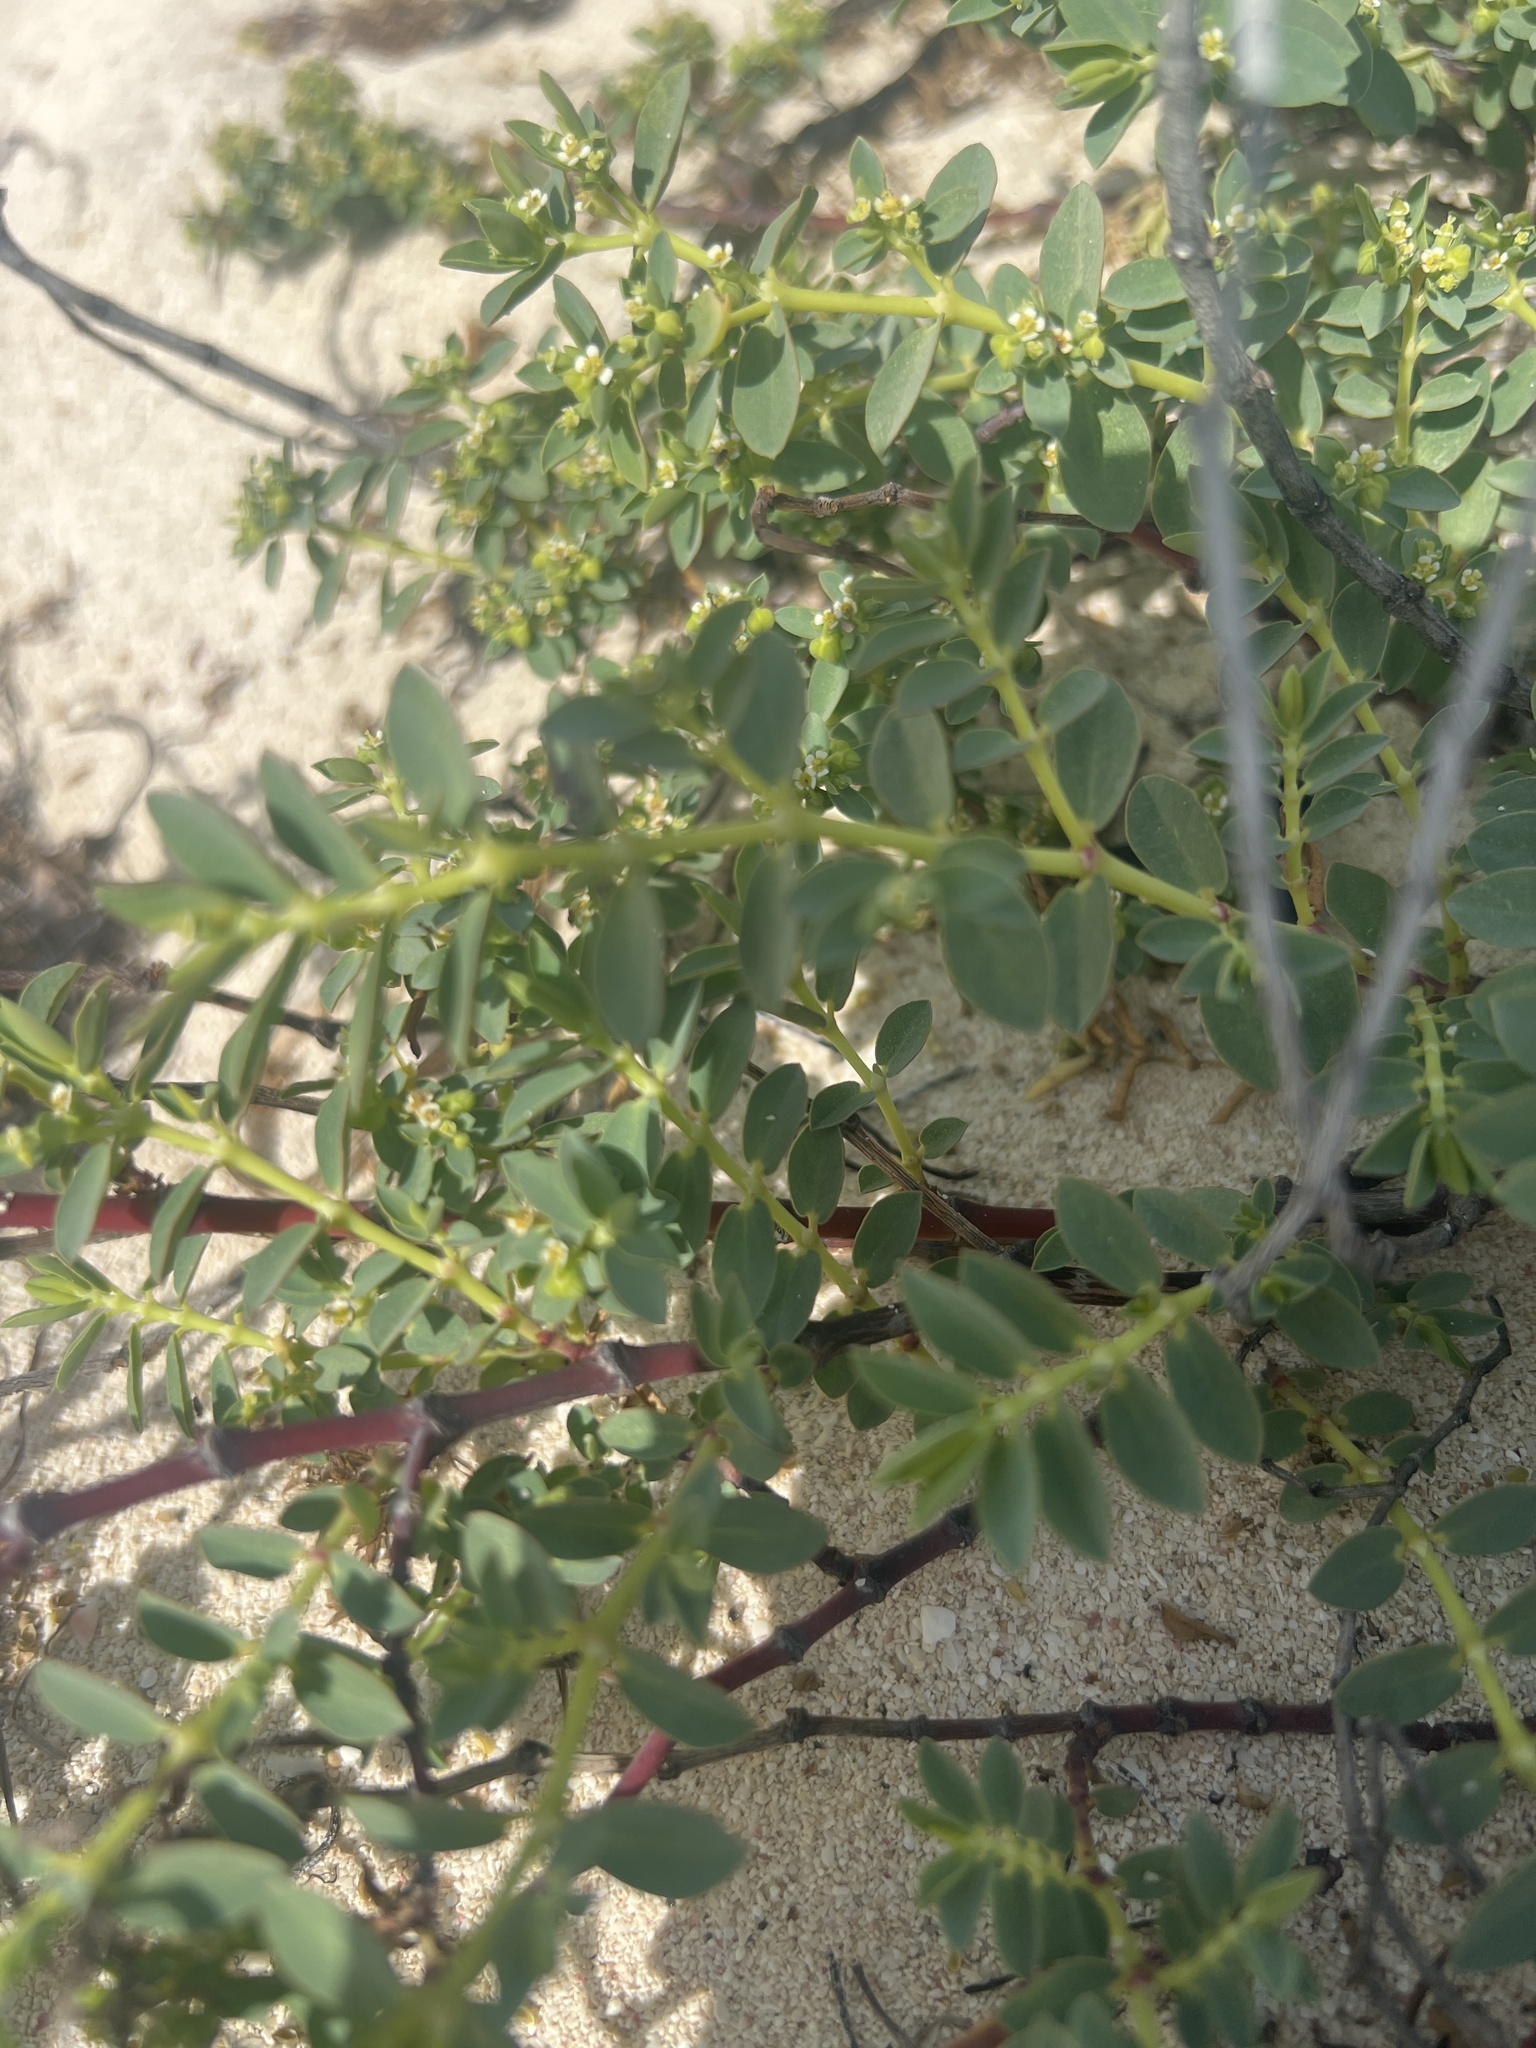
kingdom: Plantae
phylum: Tracheophyta
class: Magnoliopsida
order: Malpighiales
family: Euphorbiaceae
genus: Euphorbia
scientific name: Euphorbia mesembryanthemifolia
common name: Coastal beach sandmat
